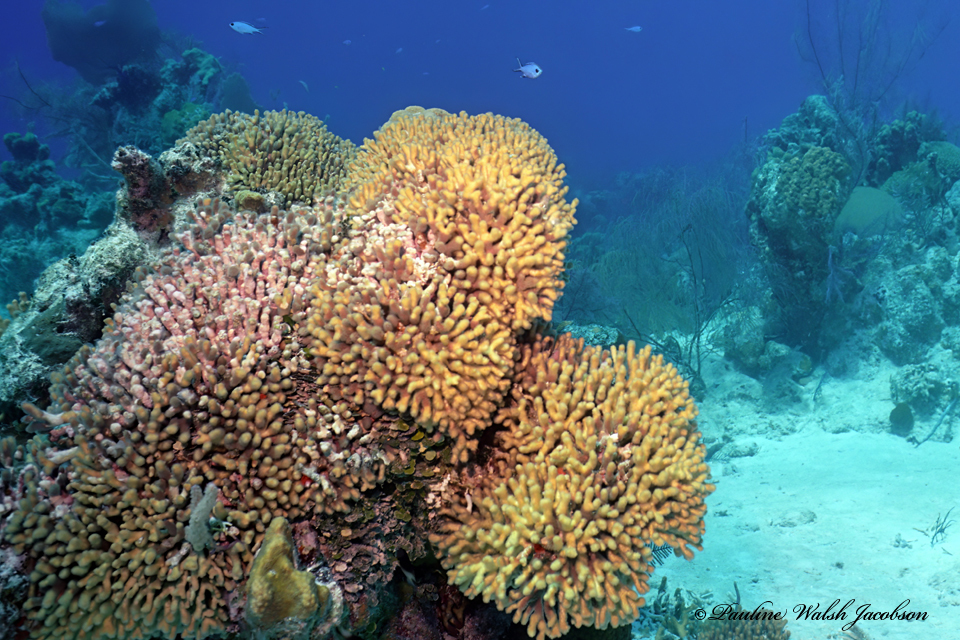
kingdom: Animalia
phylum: Cnidaria
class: Anthozoa
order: Scleractinia
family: Pocilloporidae
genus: Madracis
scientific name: Madracis auretenra
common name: Yellow pencil coral
